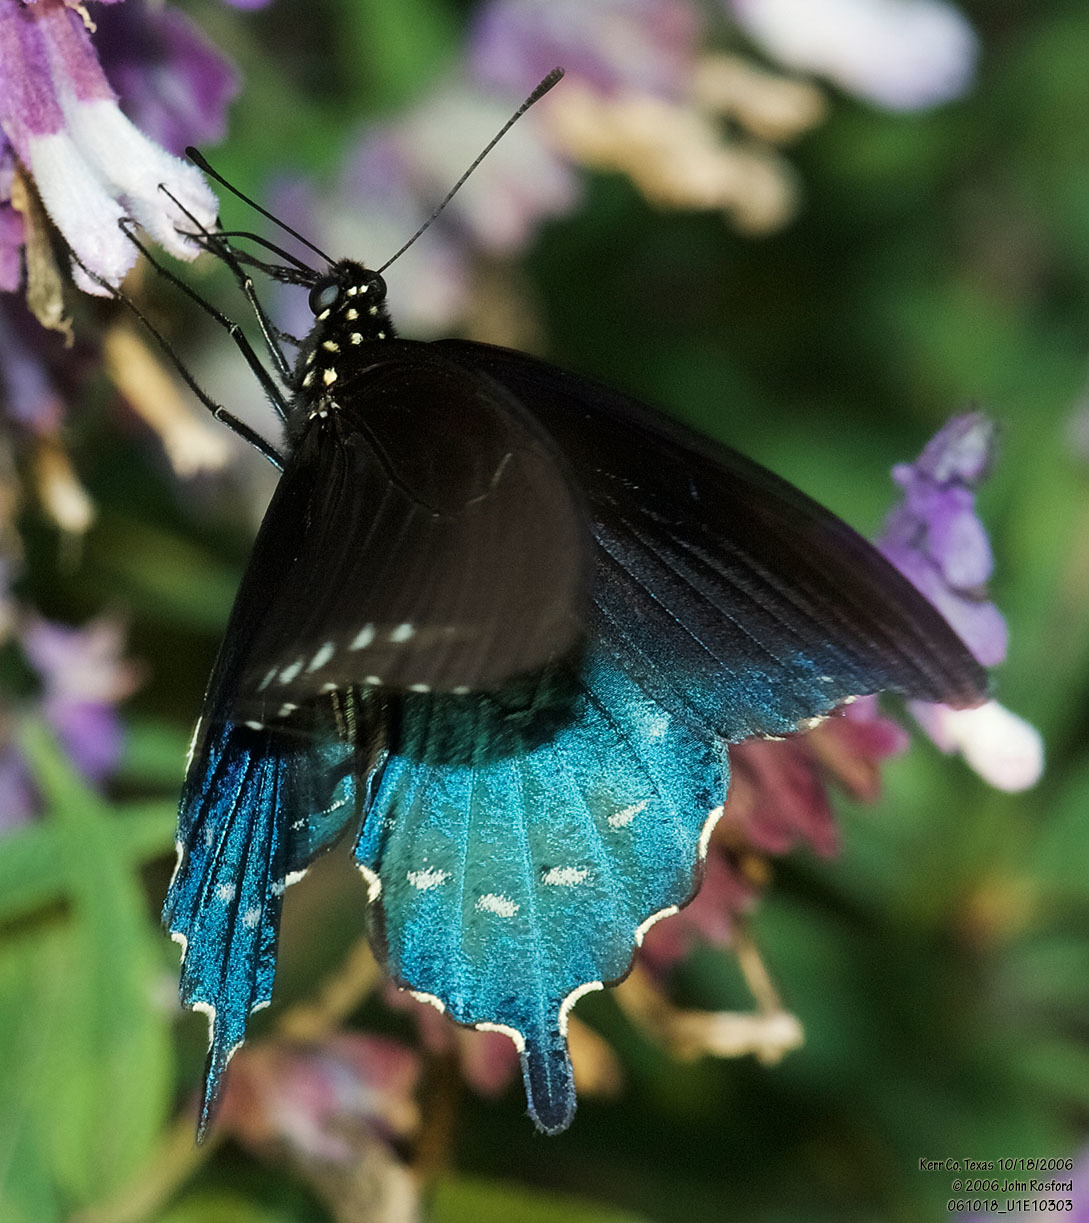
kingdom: Animalia
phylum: Arthropoda
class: Insecta
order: Lepidoptera
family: Papilionidae
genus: Battus
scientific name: Battus philenor
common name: Pipevine swallowtail
